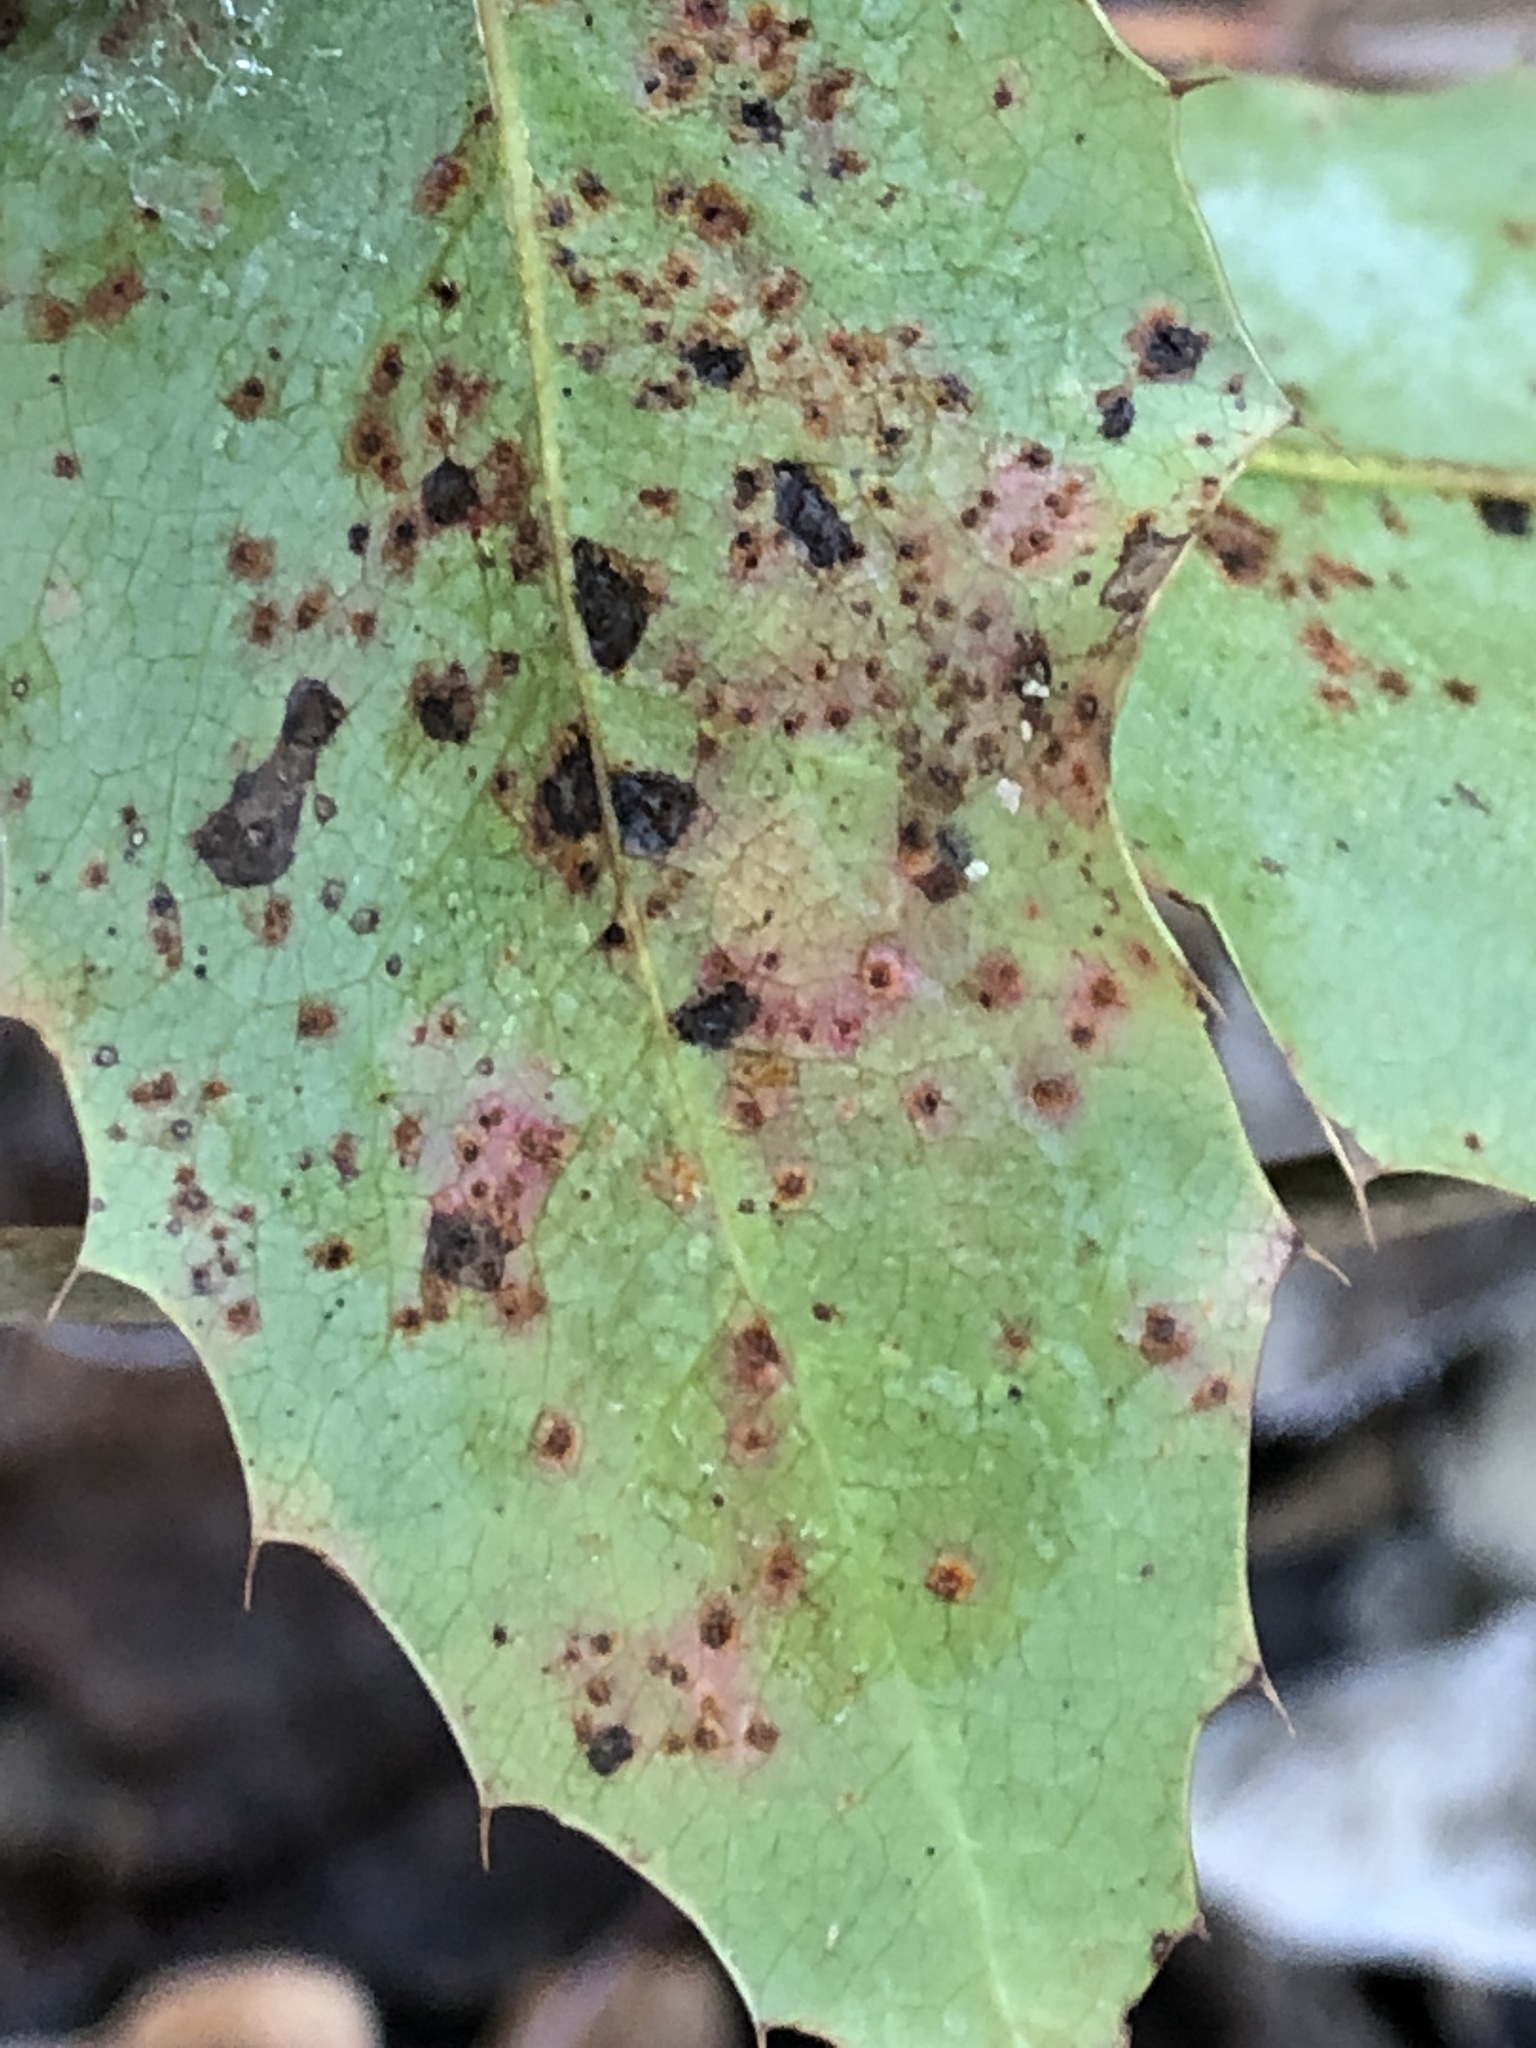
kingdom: Fungi
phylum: Basidiomycota
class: Pucciniomycetes
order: Pucciniales
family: Pucciniaceae
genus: Cumminsiella
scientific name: Cumminsiella mirabilissima
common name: Mahonia rust
